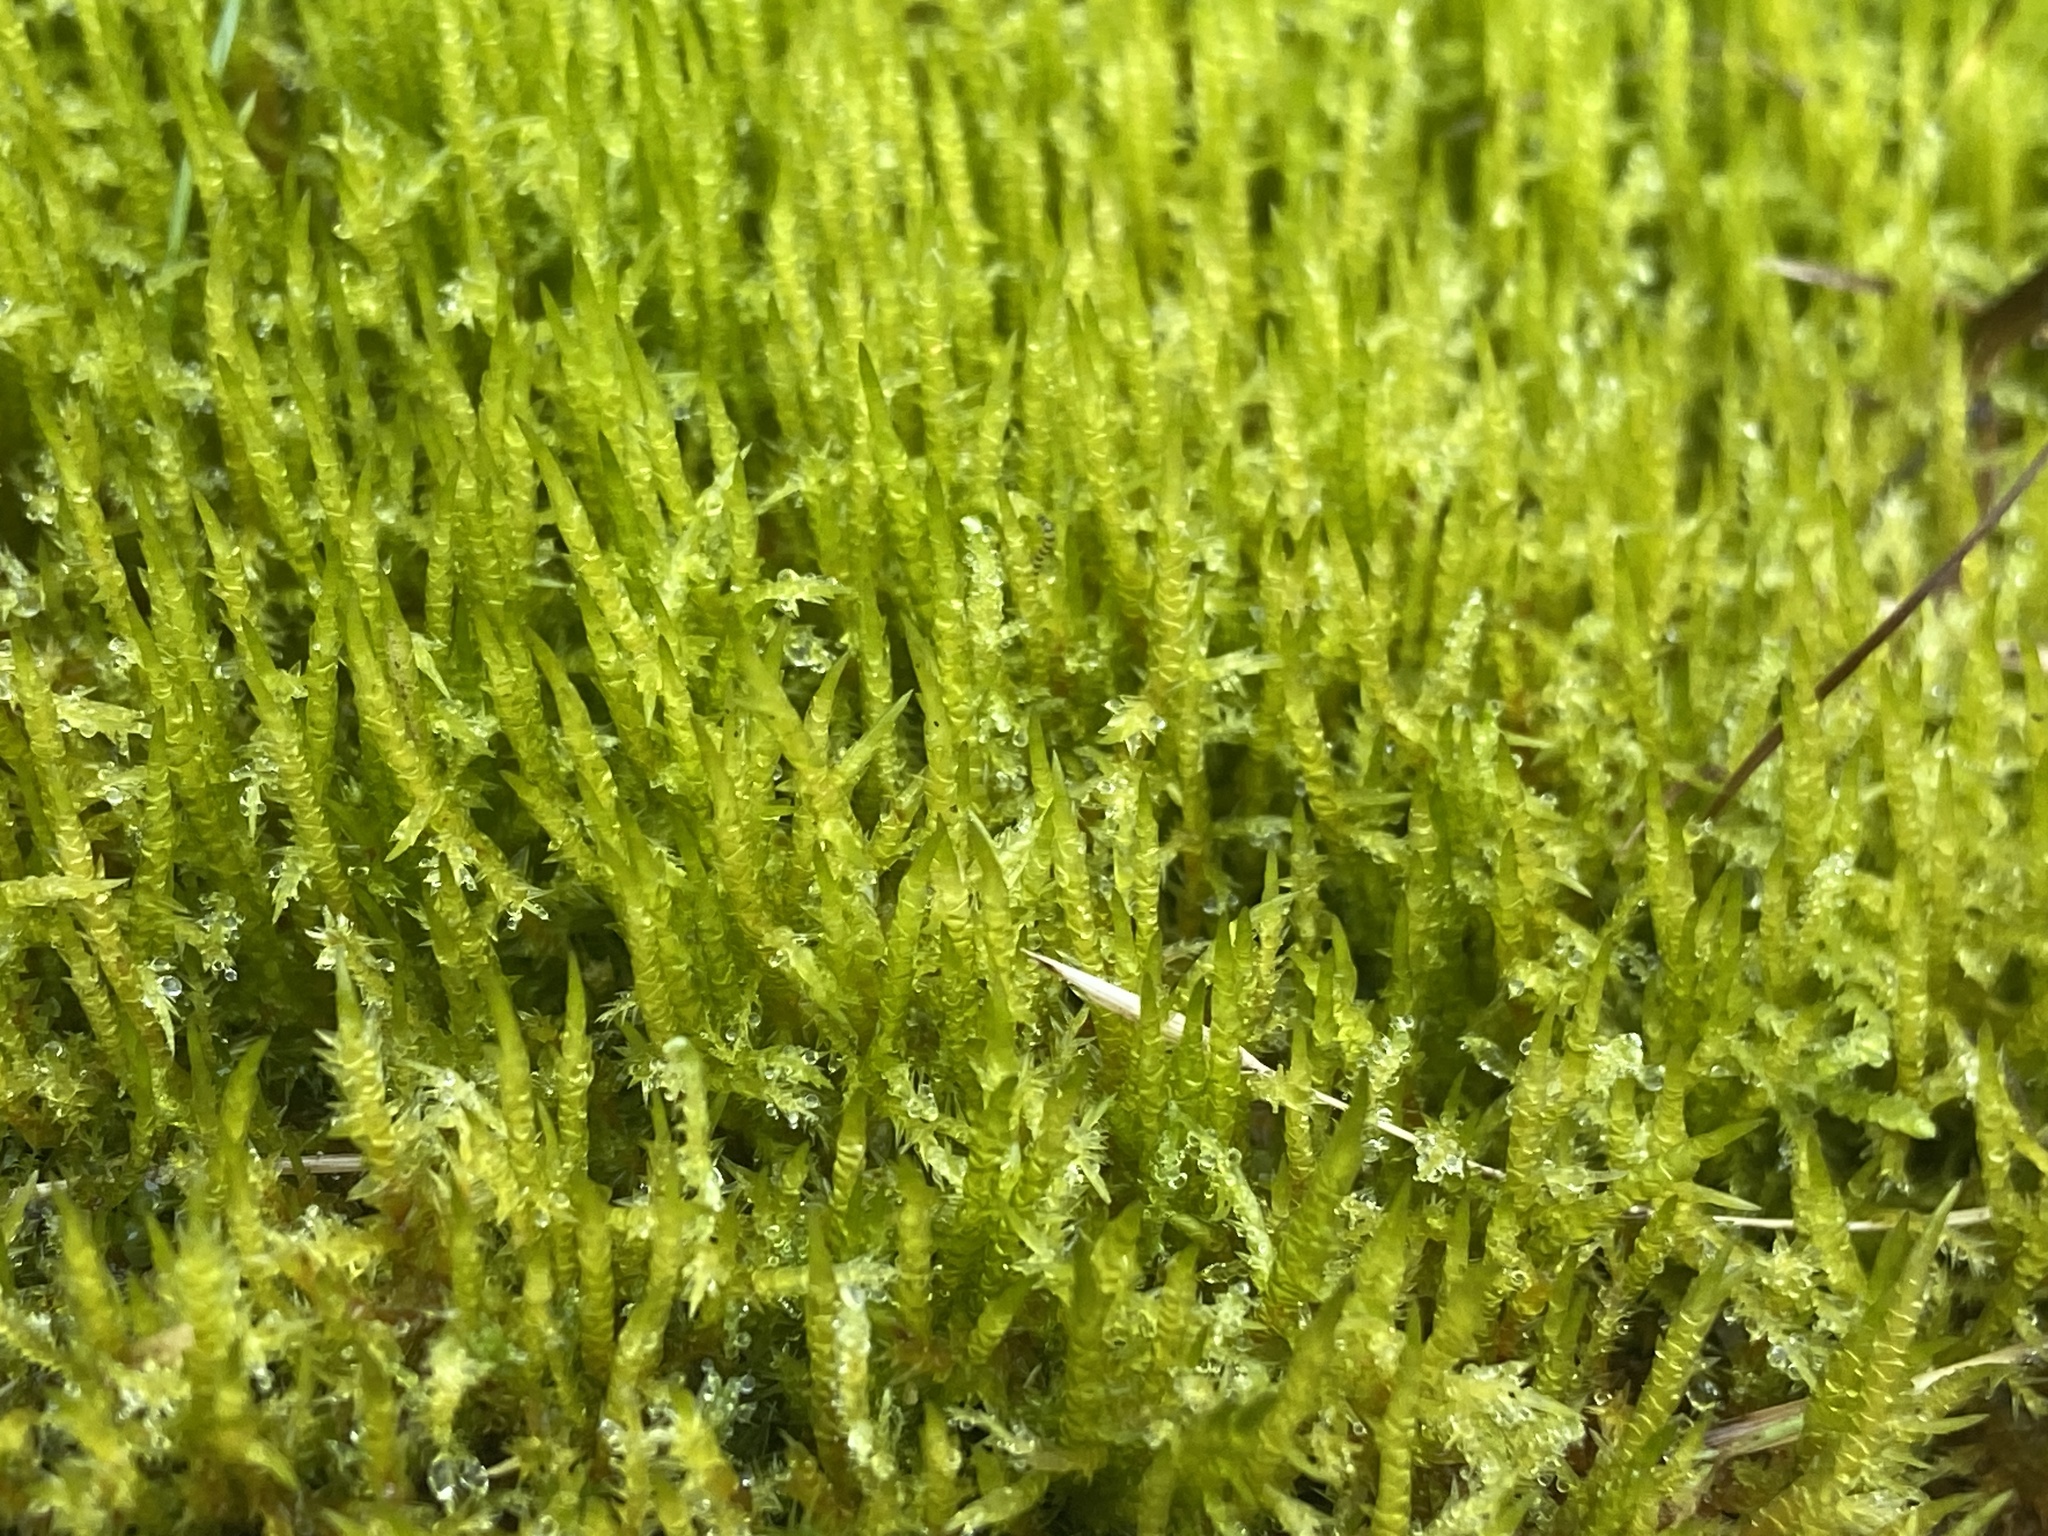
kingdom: Plantae
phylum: Bryophyta
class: Bryopsida
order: Hypnales
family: Pylaisiaceae
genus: Calliergonella
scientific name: Calliergonella cuspidata
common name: Common large wetland moss
